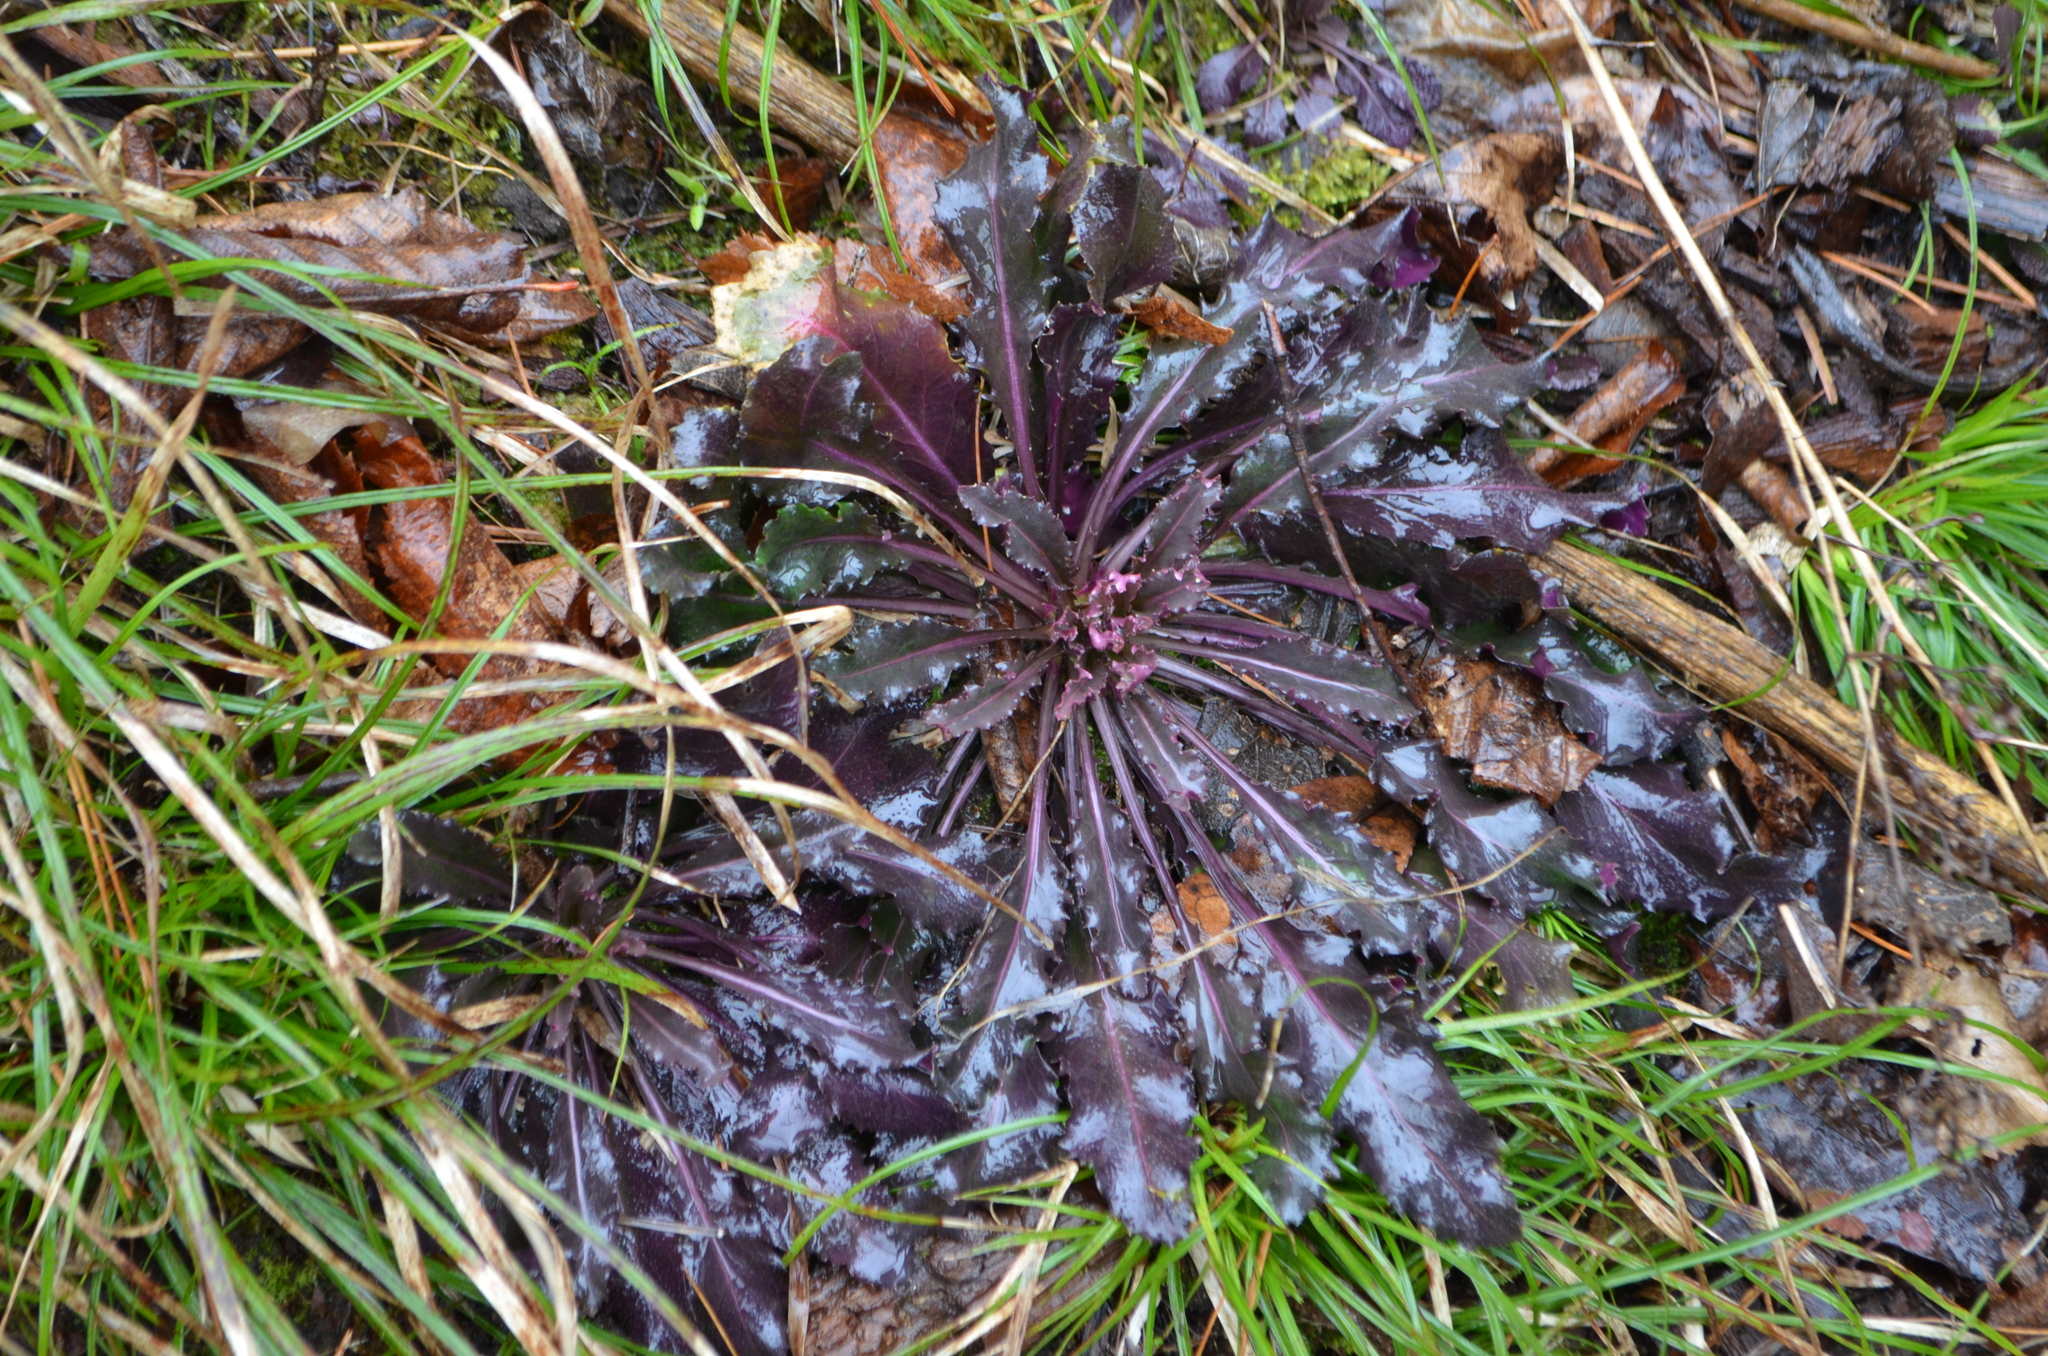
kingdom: Plantae
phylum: Tracheophyta
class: Magnoliopsida
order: Brassicales
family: Brassicaceae
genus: Borodinia
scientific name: Borodinia laevigata
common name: Smooth rockcress
